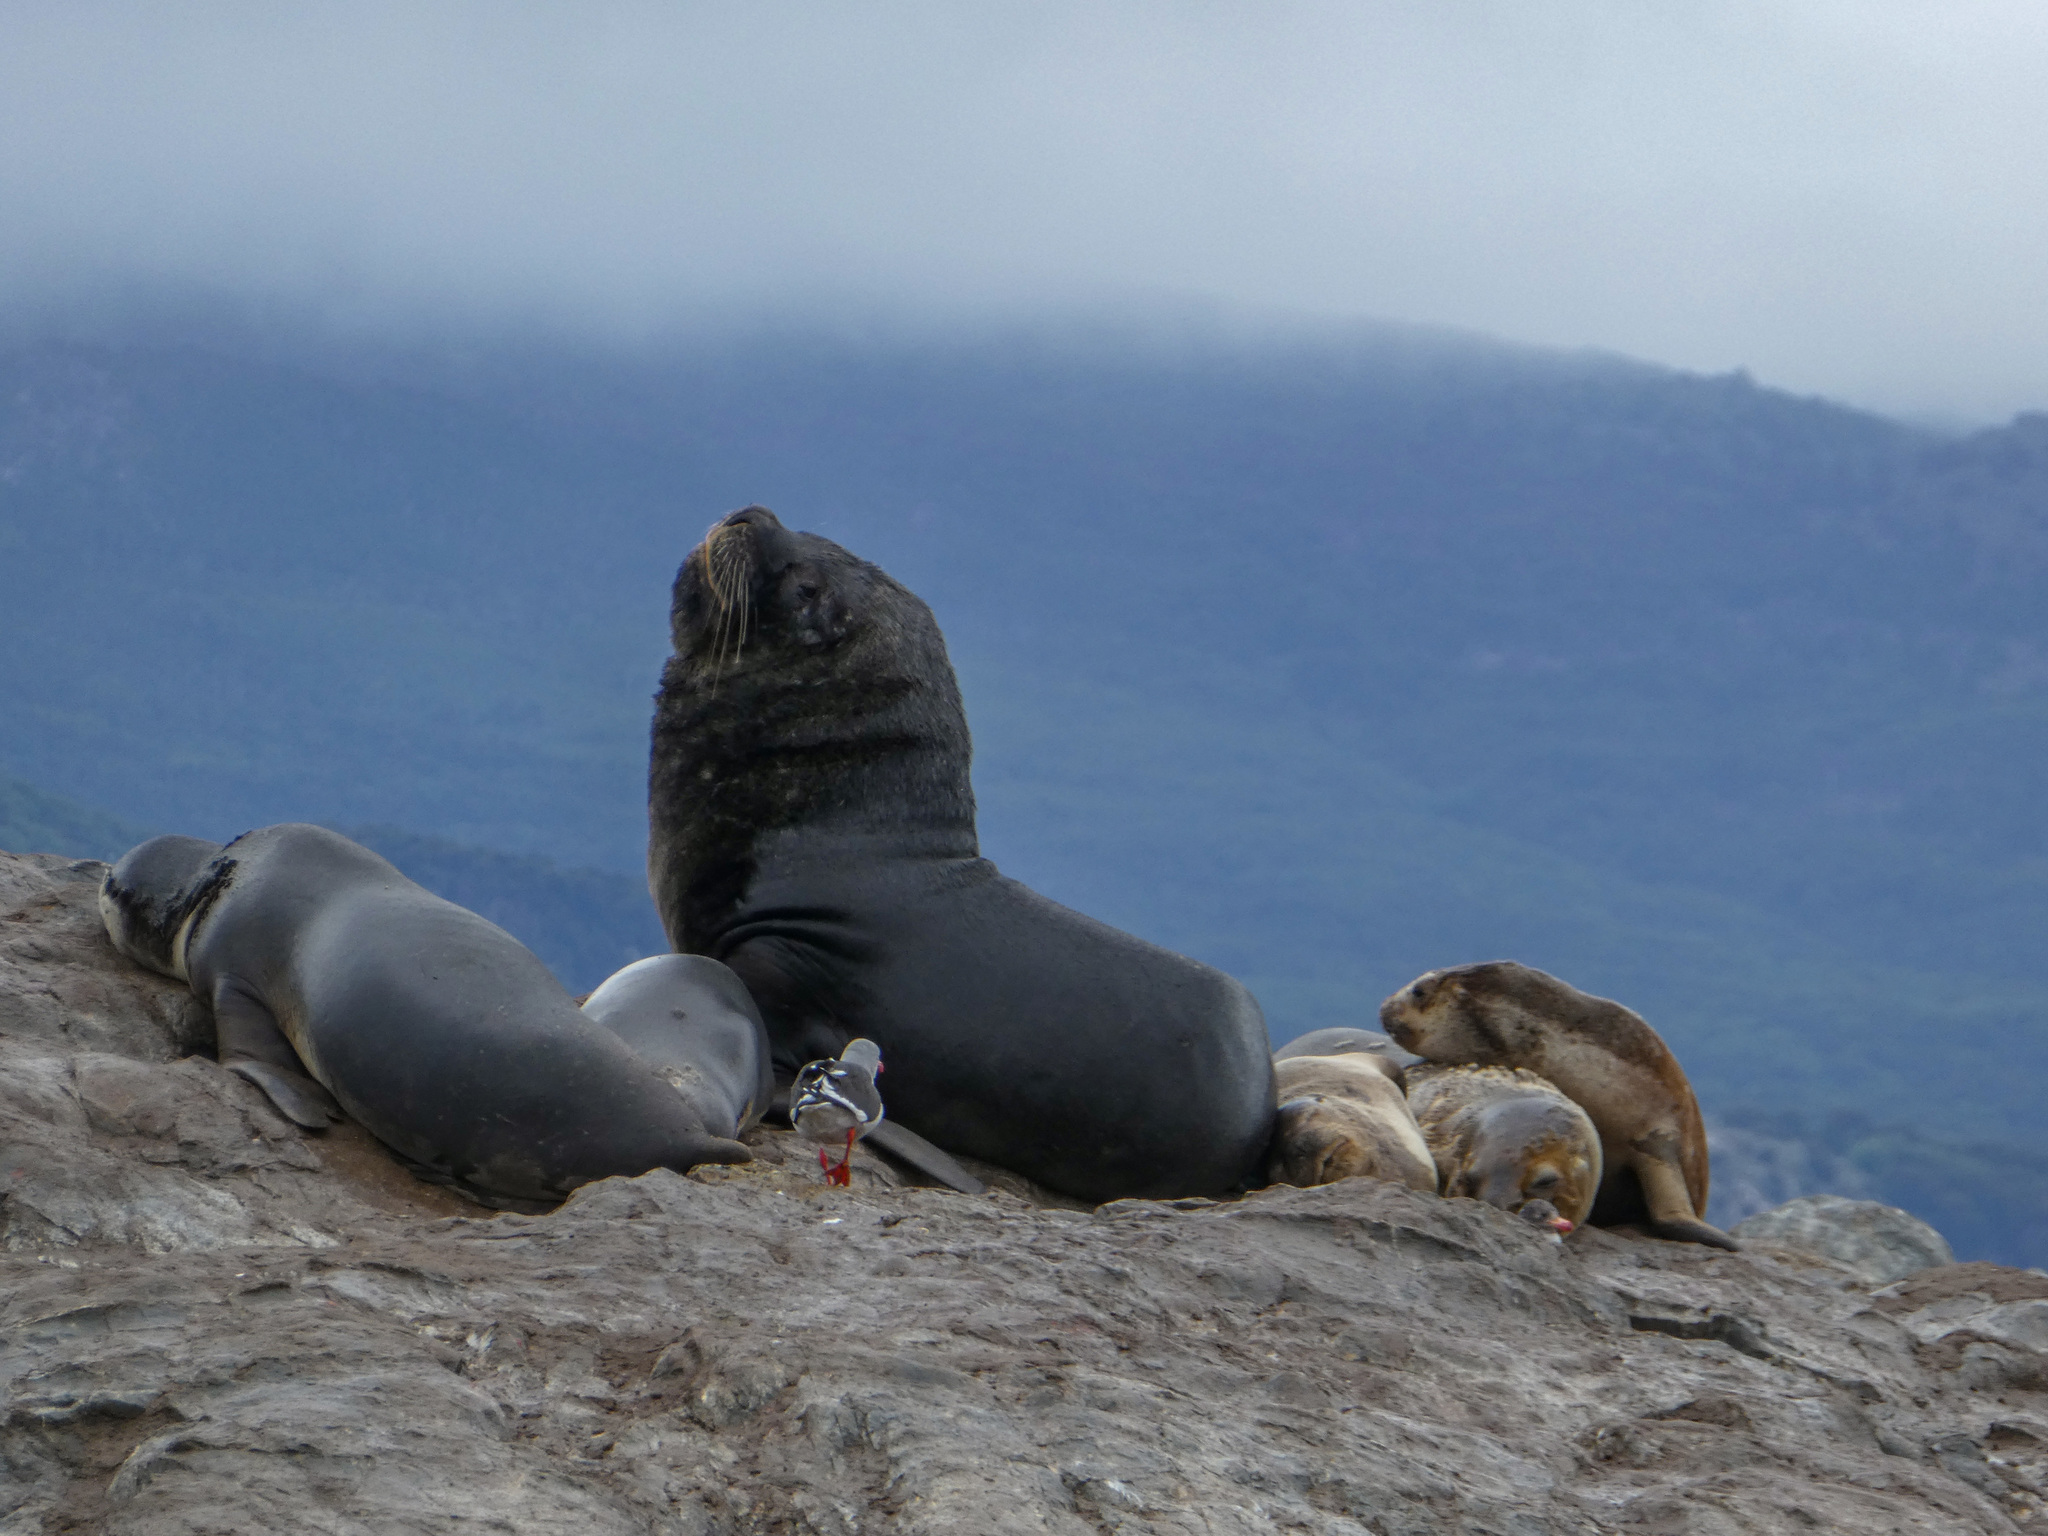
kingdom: Animalia
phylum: Chordata
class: Mammalia
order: Carnivora
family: Otariidae
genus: Otaria
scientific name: Otaria byronia
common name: South american sea lion
